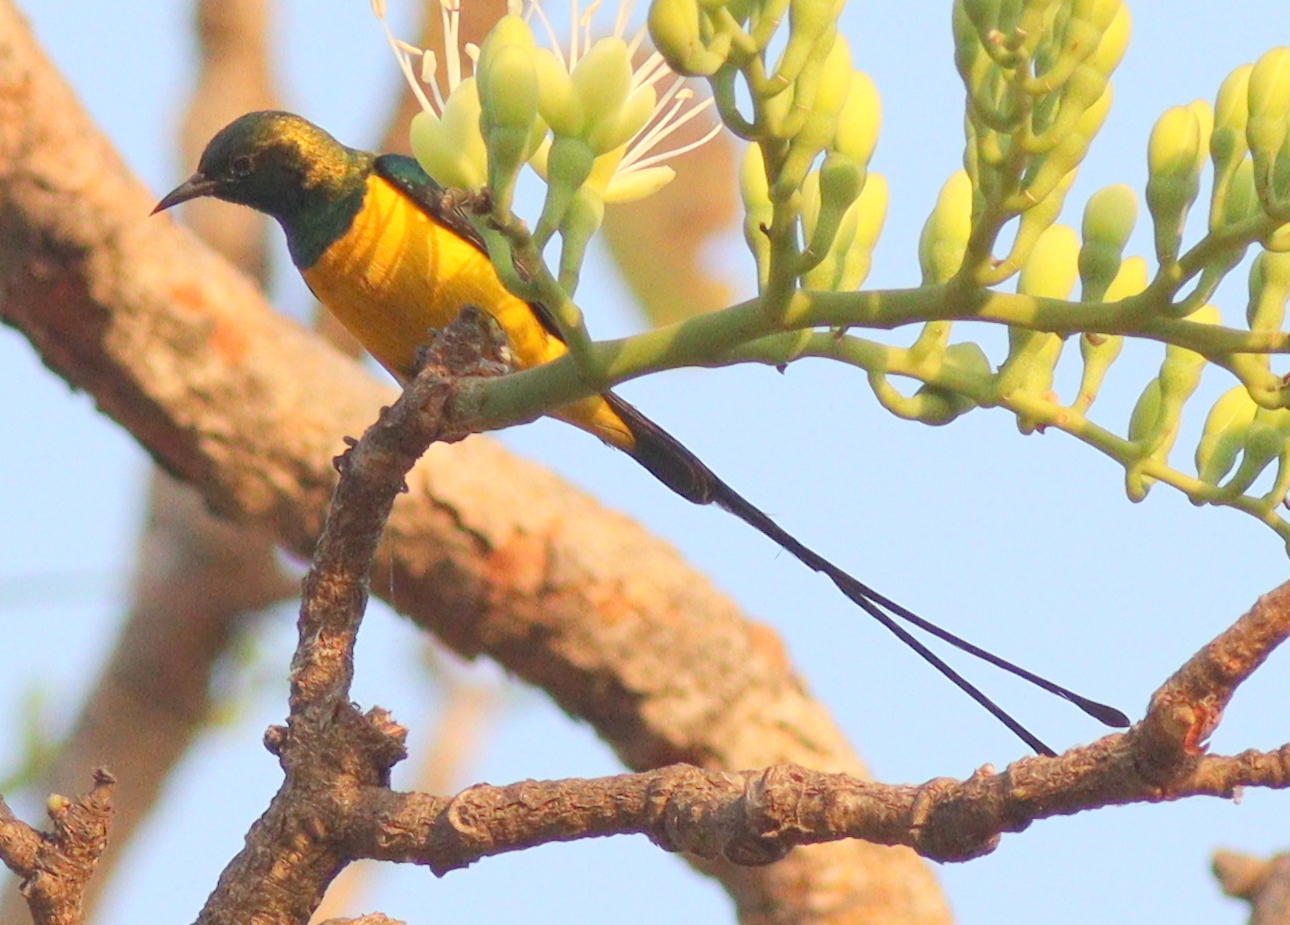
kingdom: Animalia
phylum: Chordata
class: Aves
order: Passeriformes
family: Nectariniidae
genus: Hedydipna
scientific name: Hedydipna platura
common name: Pygmy sunbird
